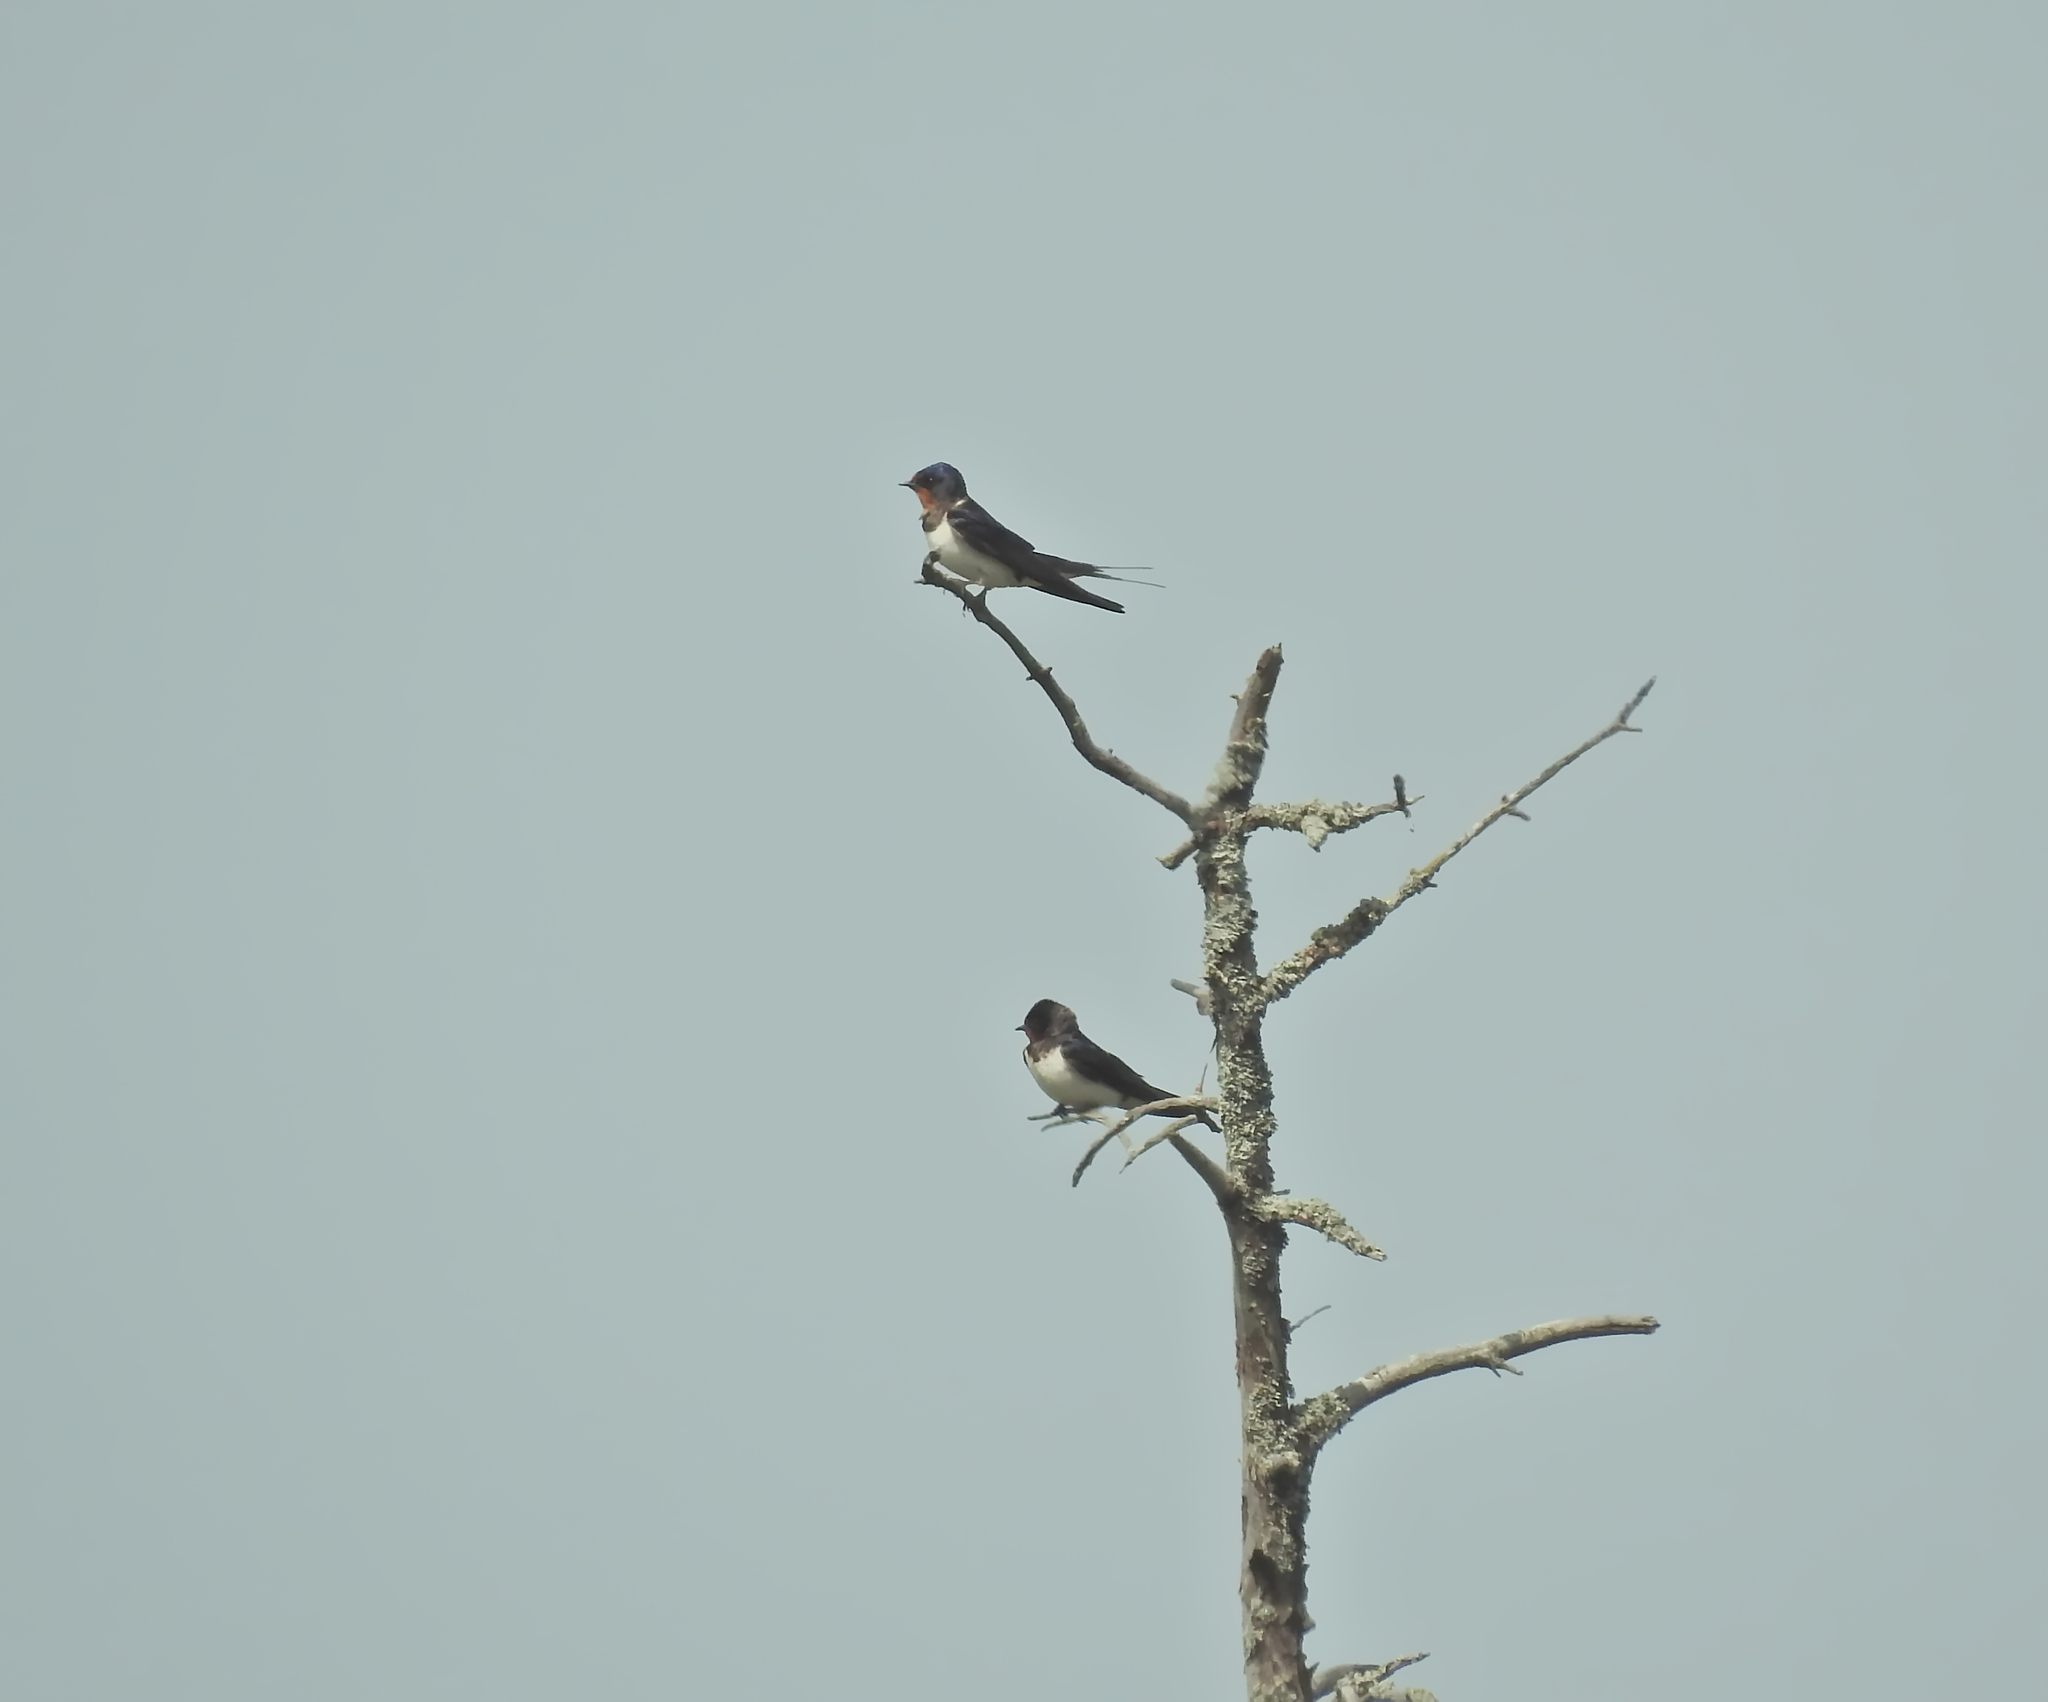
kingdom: Animalia
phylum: Chordata
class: Aves
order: Passeriformes
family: Hirundinidae
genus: Hirundo
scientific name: Hirundo rustica
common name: Barn swallow
